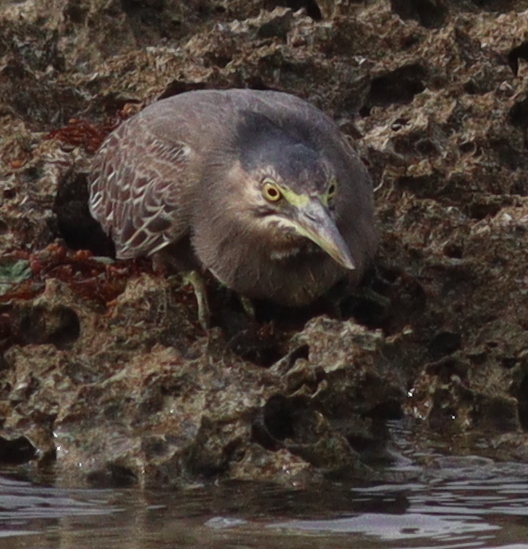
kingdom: Animalia
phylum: Chordata
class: Aves
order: Pelecaniformes
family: Ardeidae
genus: Butorides
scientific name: Butorides striata
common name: Striated heron
